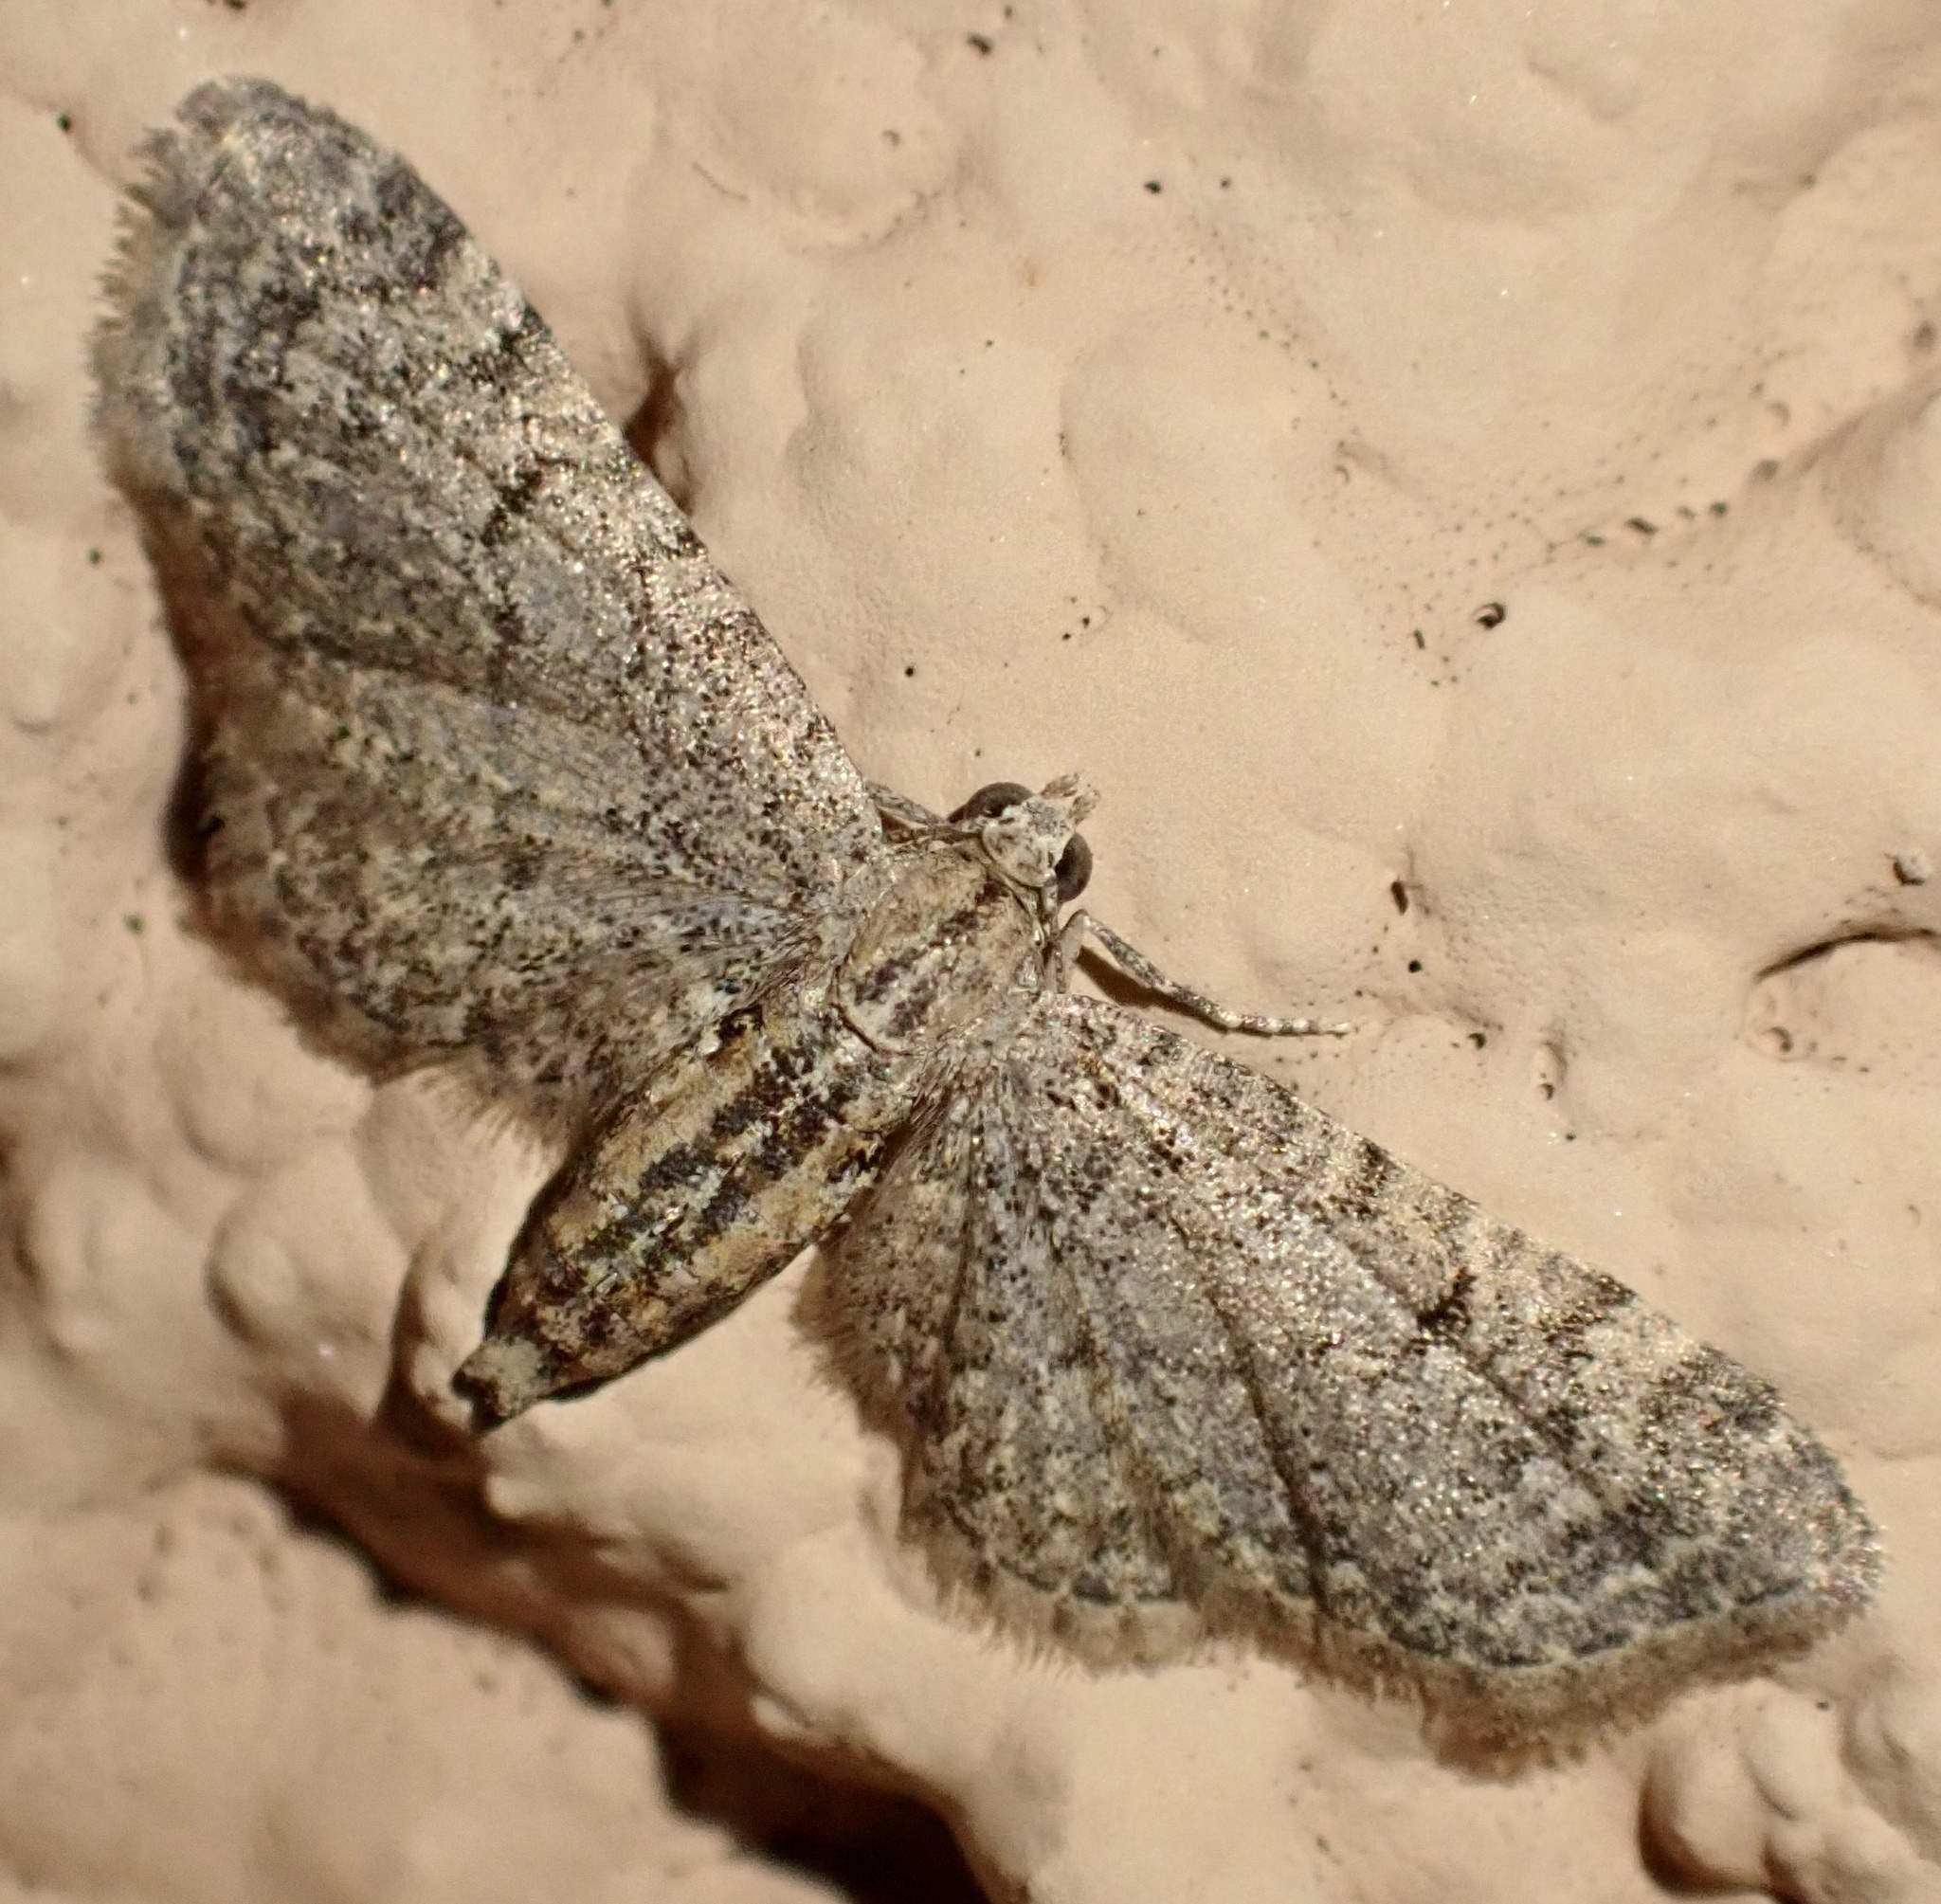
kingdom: Animalia
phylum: Arthropoda
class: Insecta
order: Lepidoptera
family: Geometridae
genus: Eupithecia
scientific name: Eupithecia ultimaria
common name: Channel islands pug
